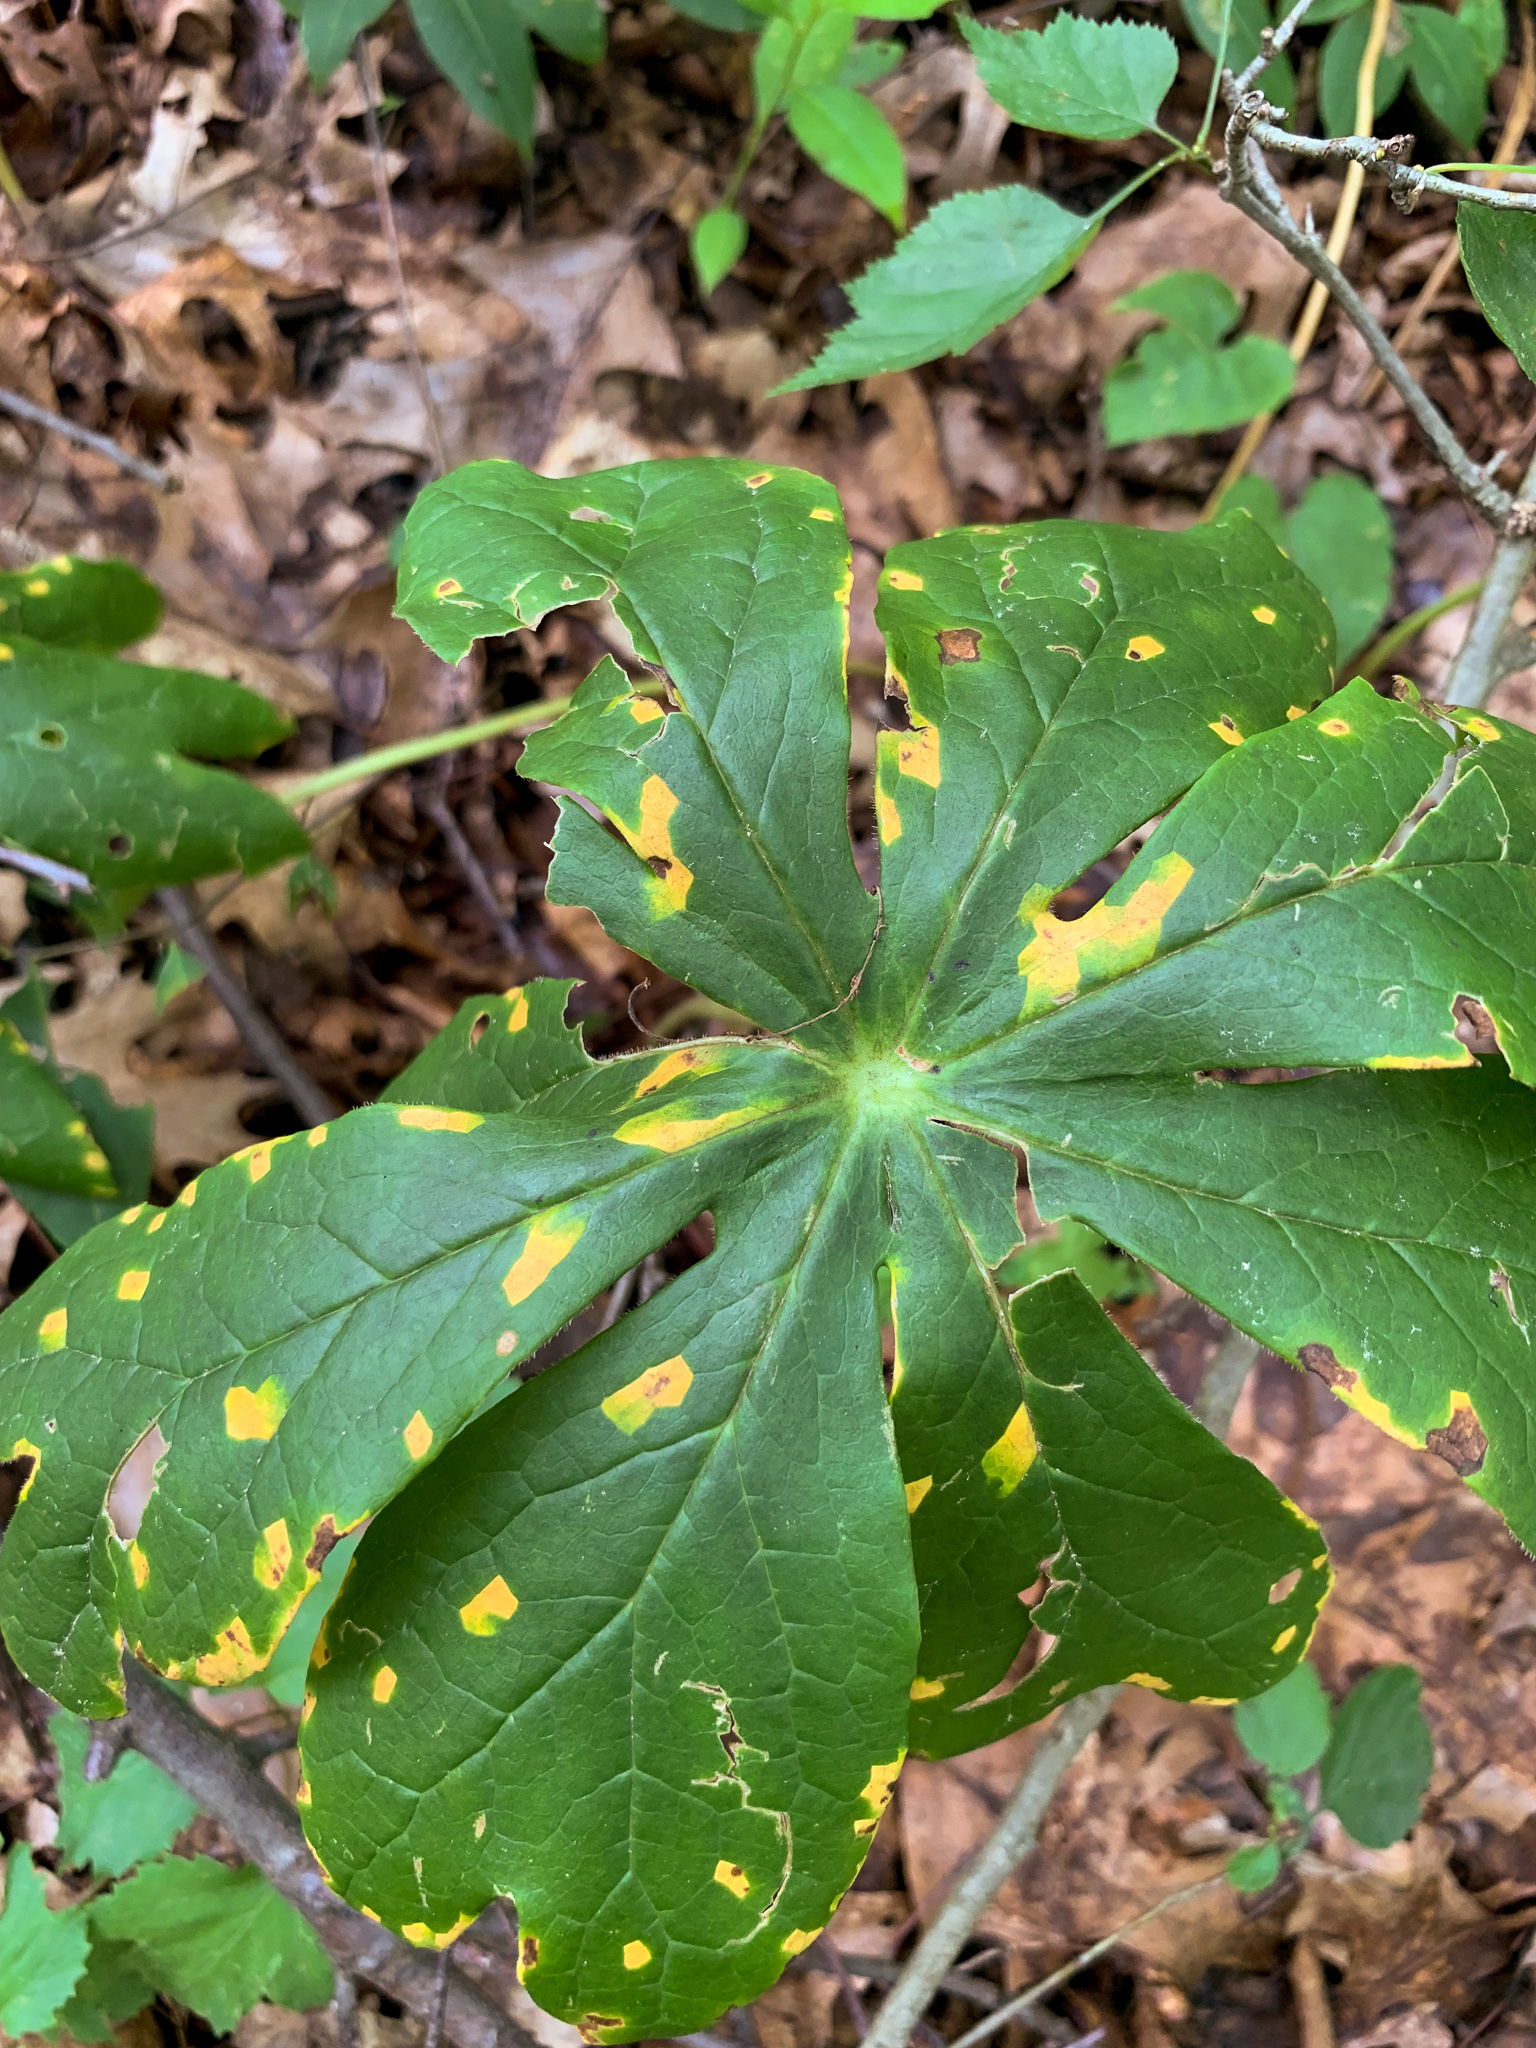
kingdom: Fungi
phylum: Basidiomycota
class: Pucciniomycetes
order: Pucciniales
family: Pucciniaceae
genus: Puccinia
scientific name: Puccinia podophylli
